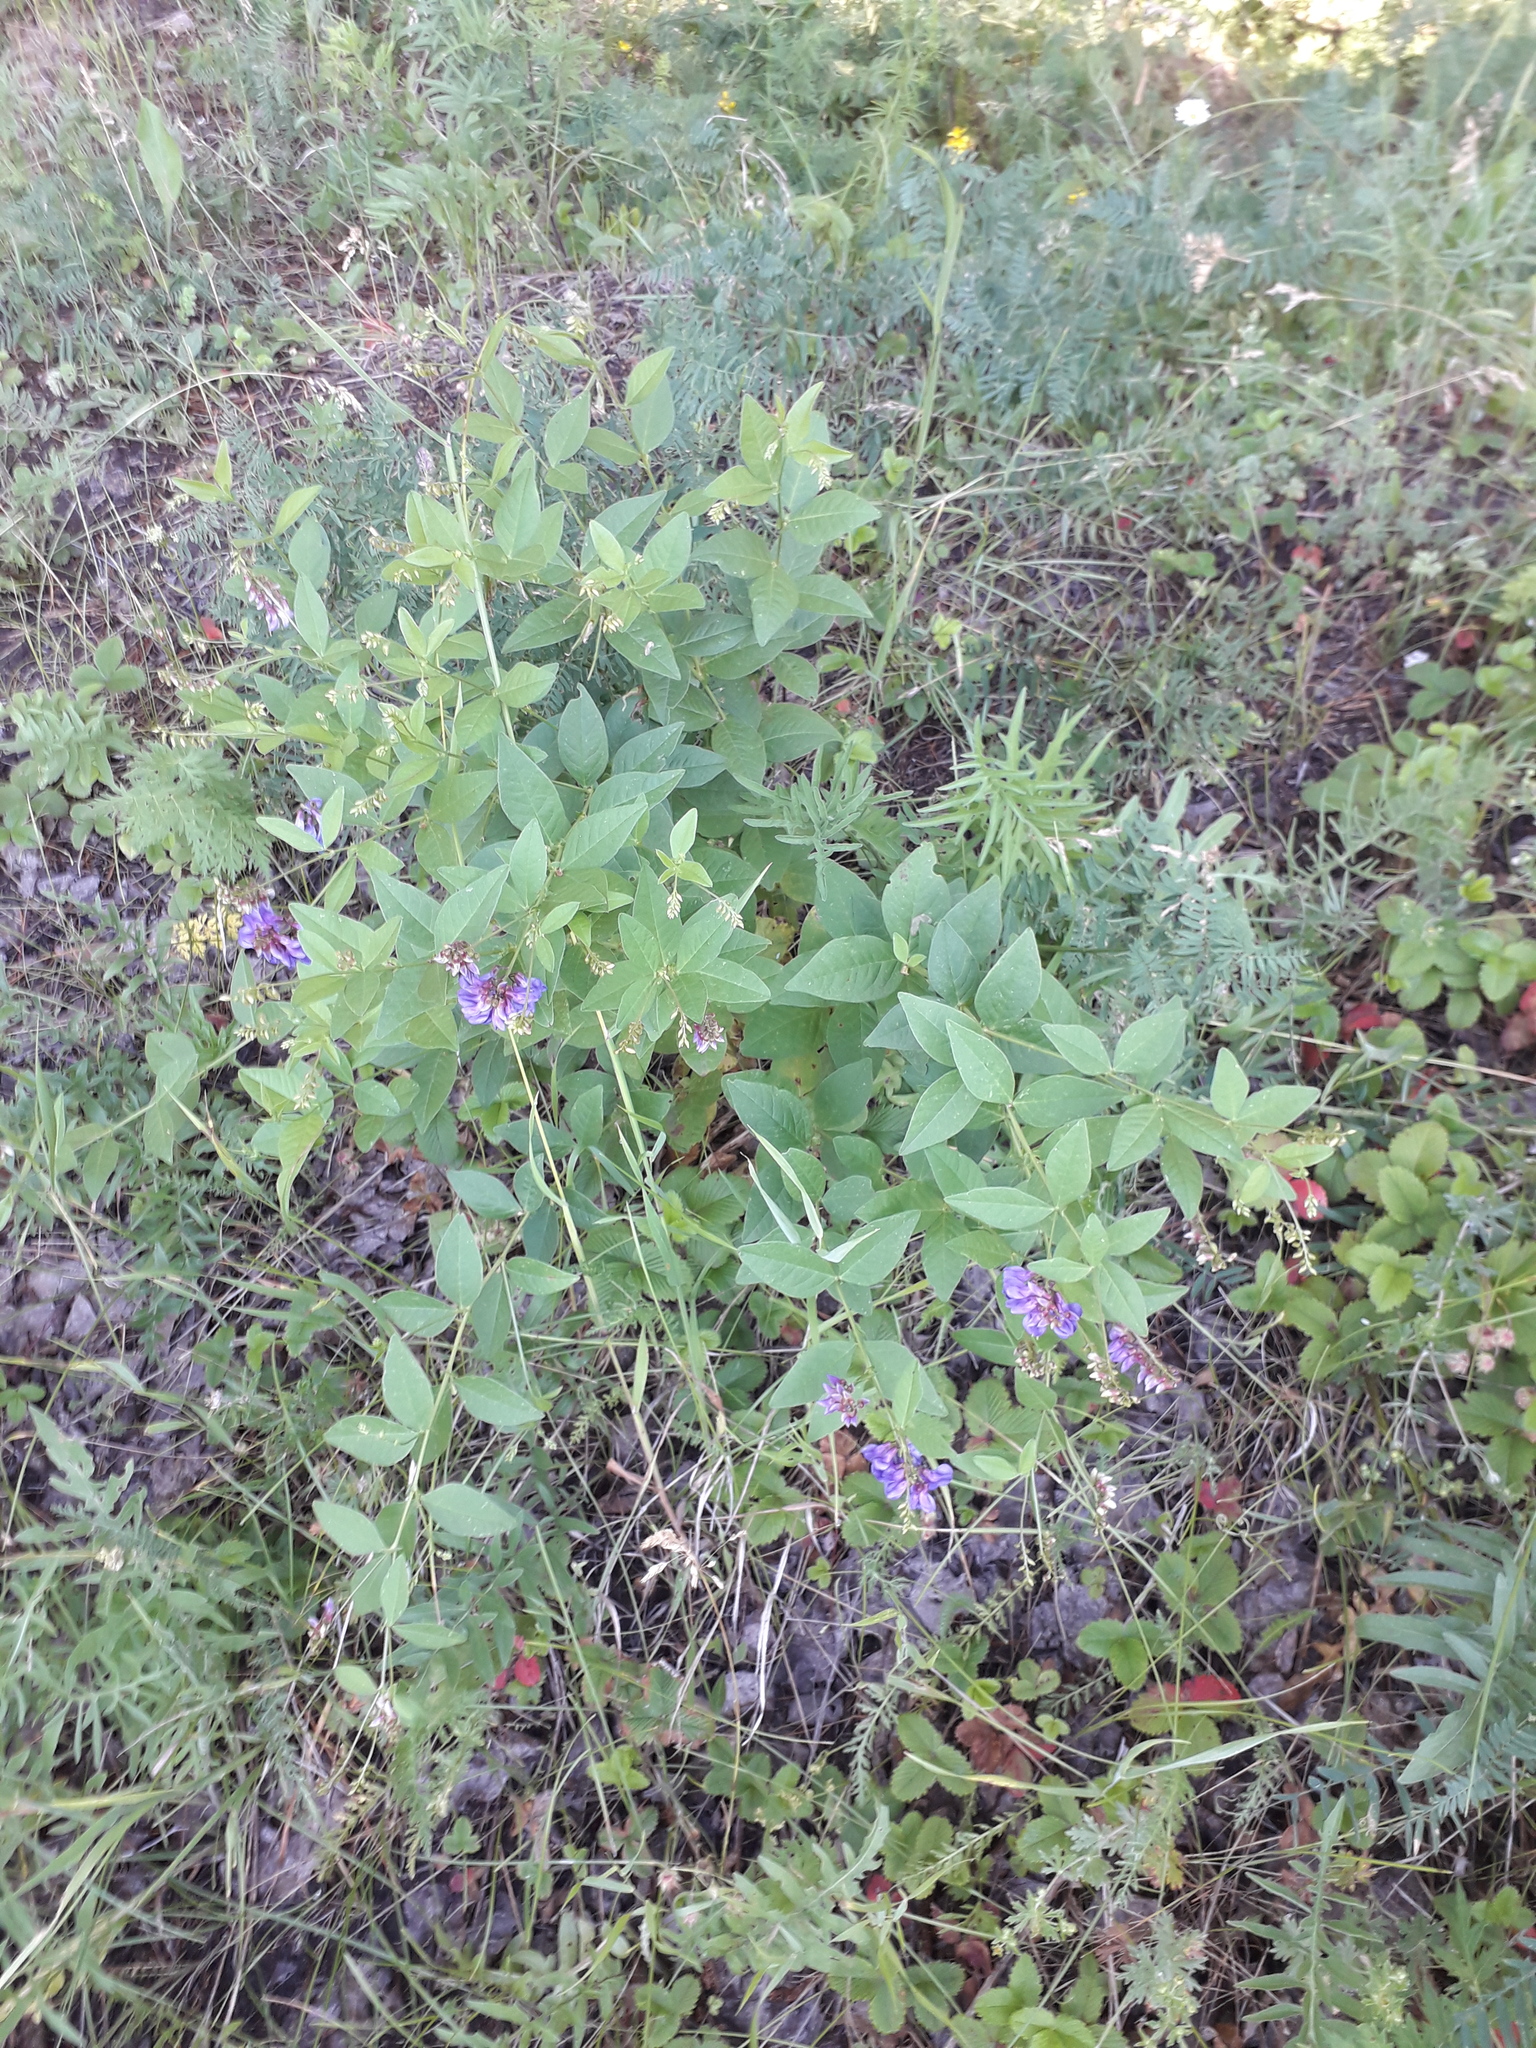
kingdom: Plantae
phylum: Tracheophyta
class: Magnoliopsida
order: Fabales
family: Fabaceae
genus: Vicia
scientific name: Vicia unijuga
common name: Two-leaf vetch
